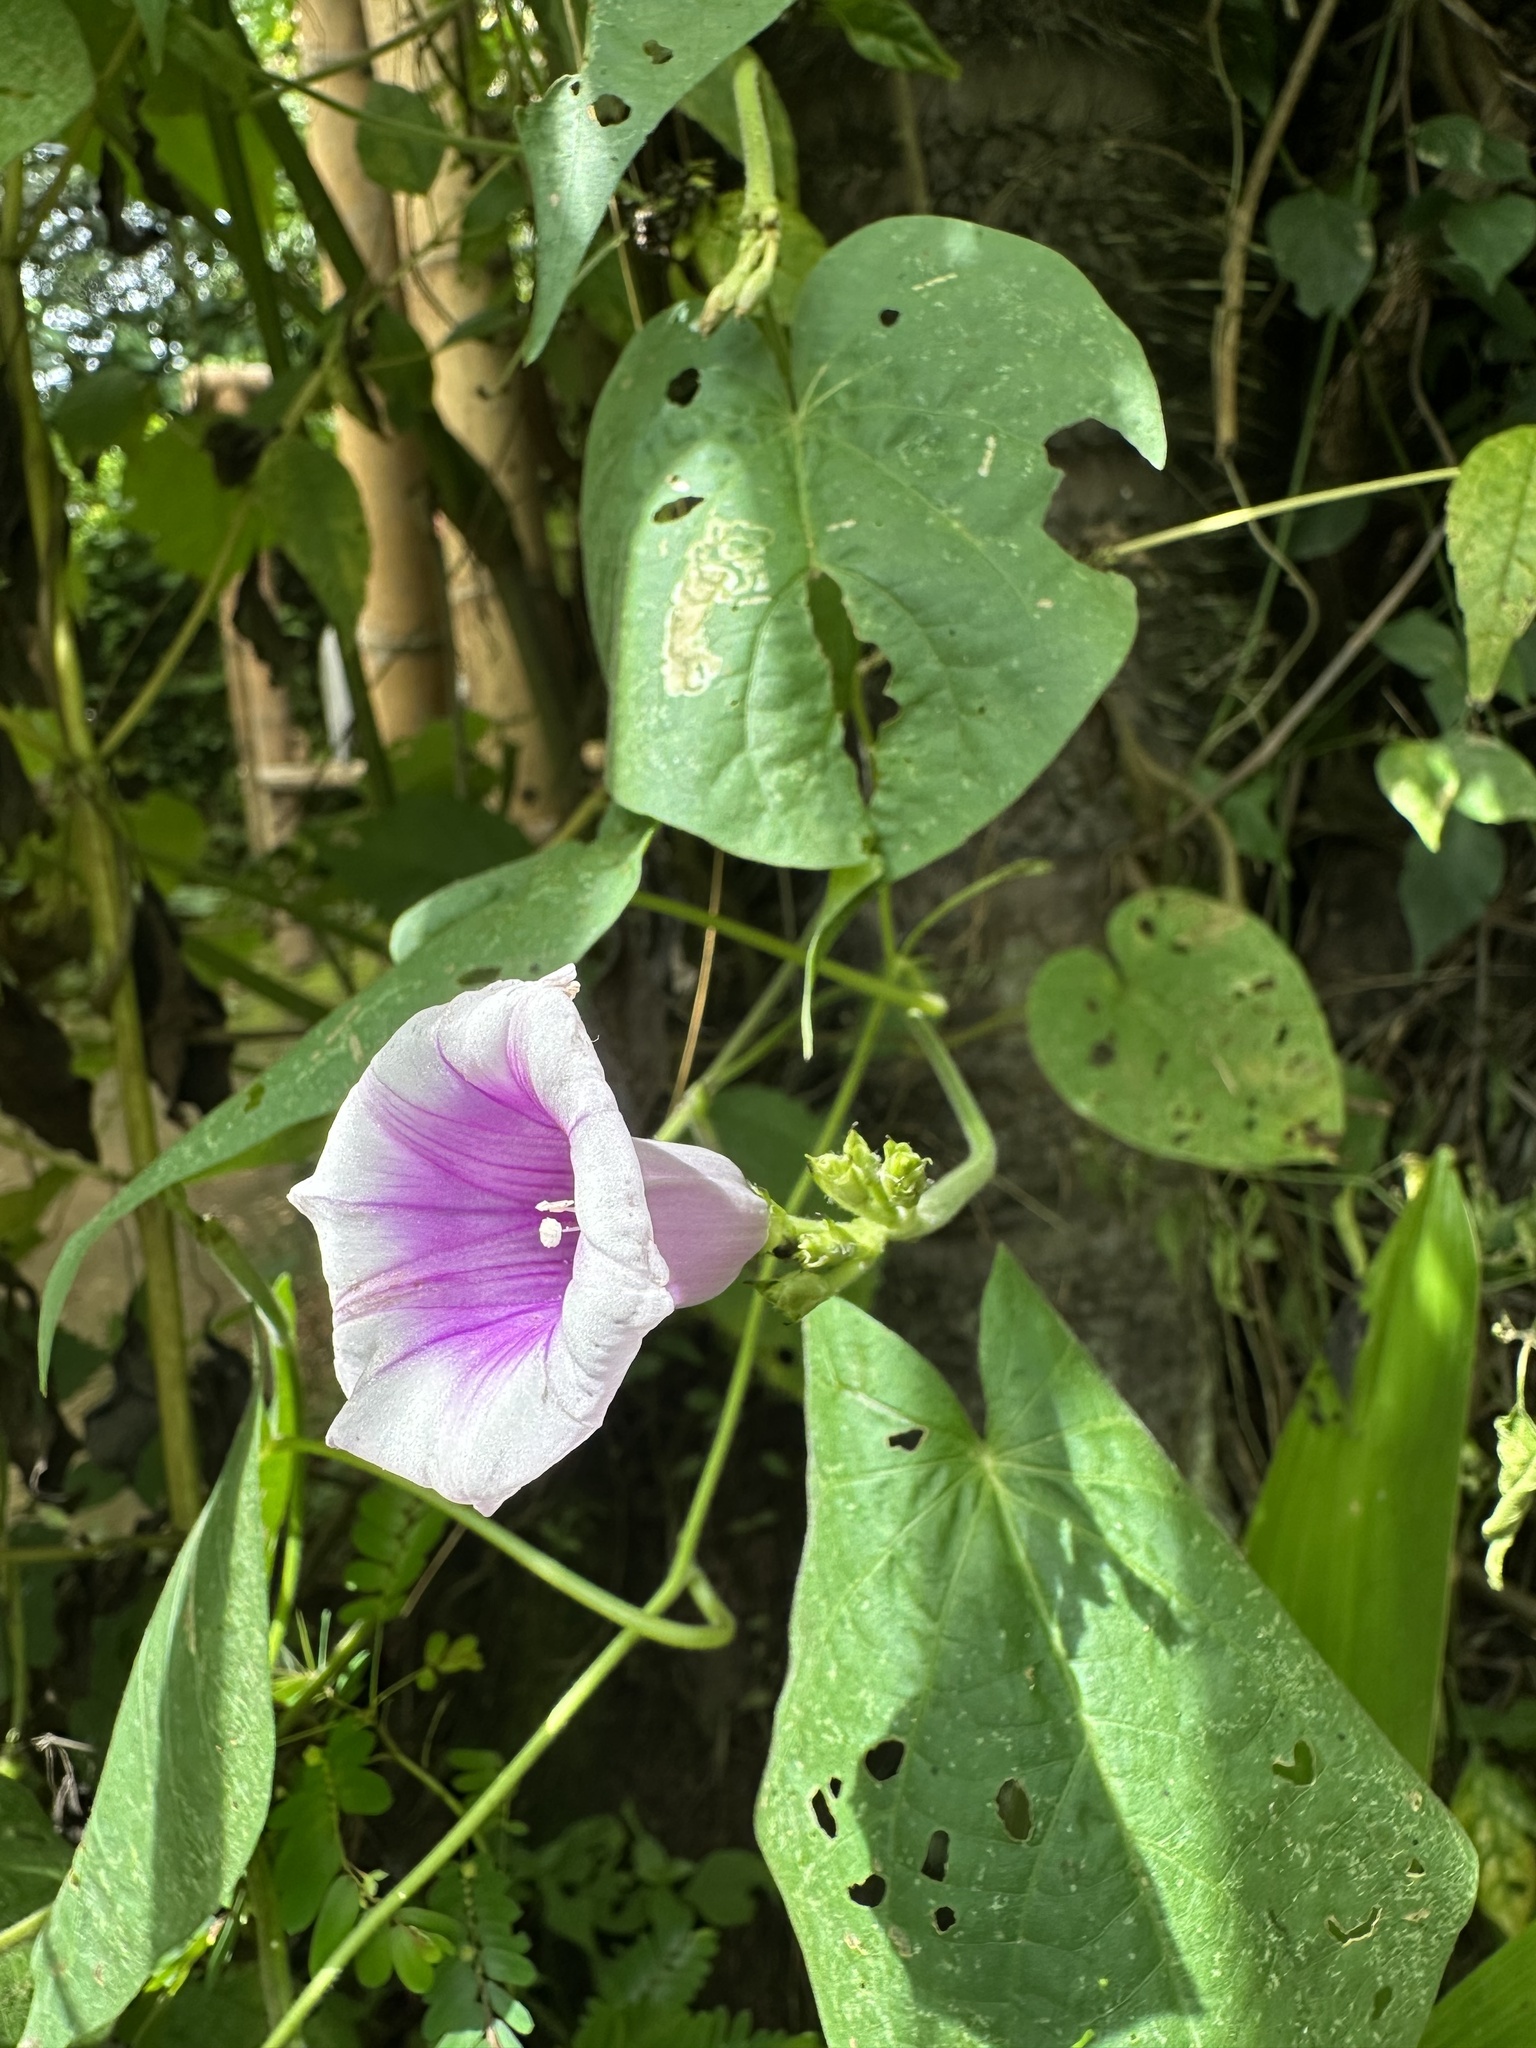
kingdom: Plantae
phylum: Tracheophyta
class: Magnoliopsida
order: Solanales
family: Convolvulaceae
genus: Ipomoea
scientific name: Ipomoea batatas
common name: Sweet-potato
